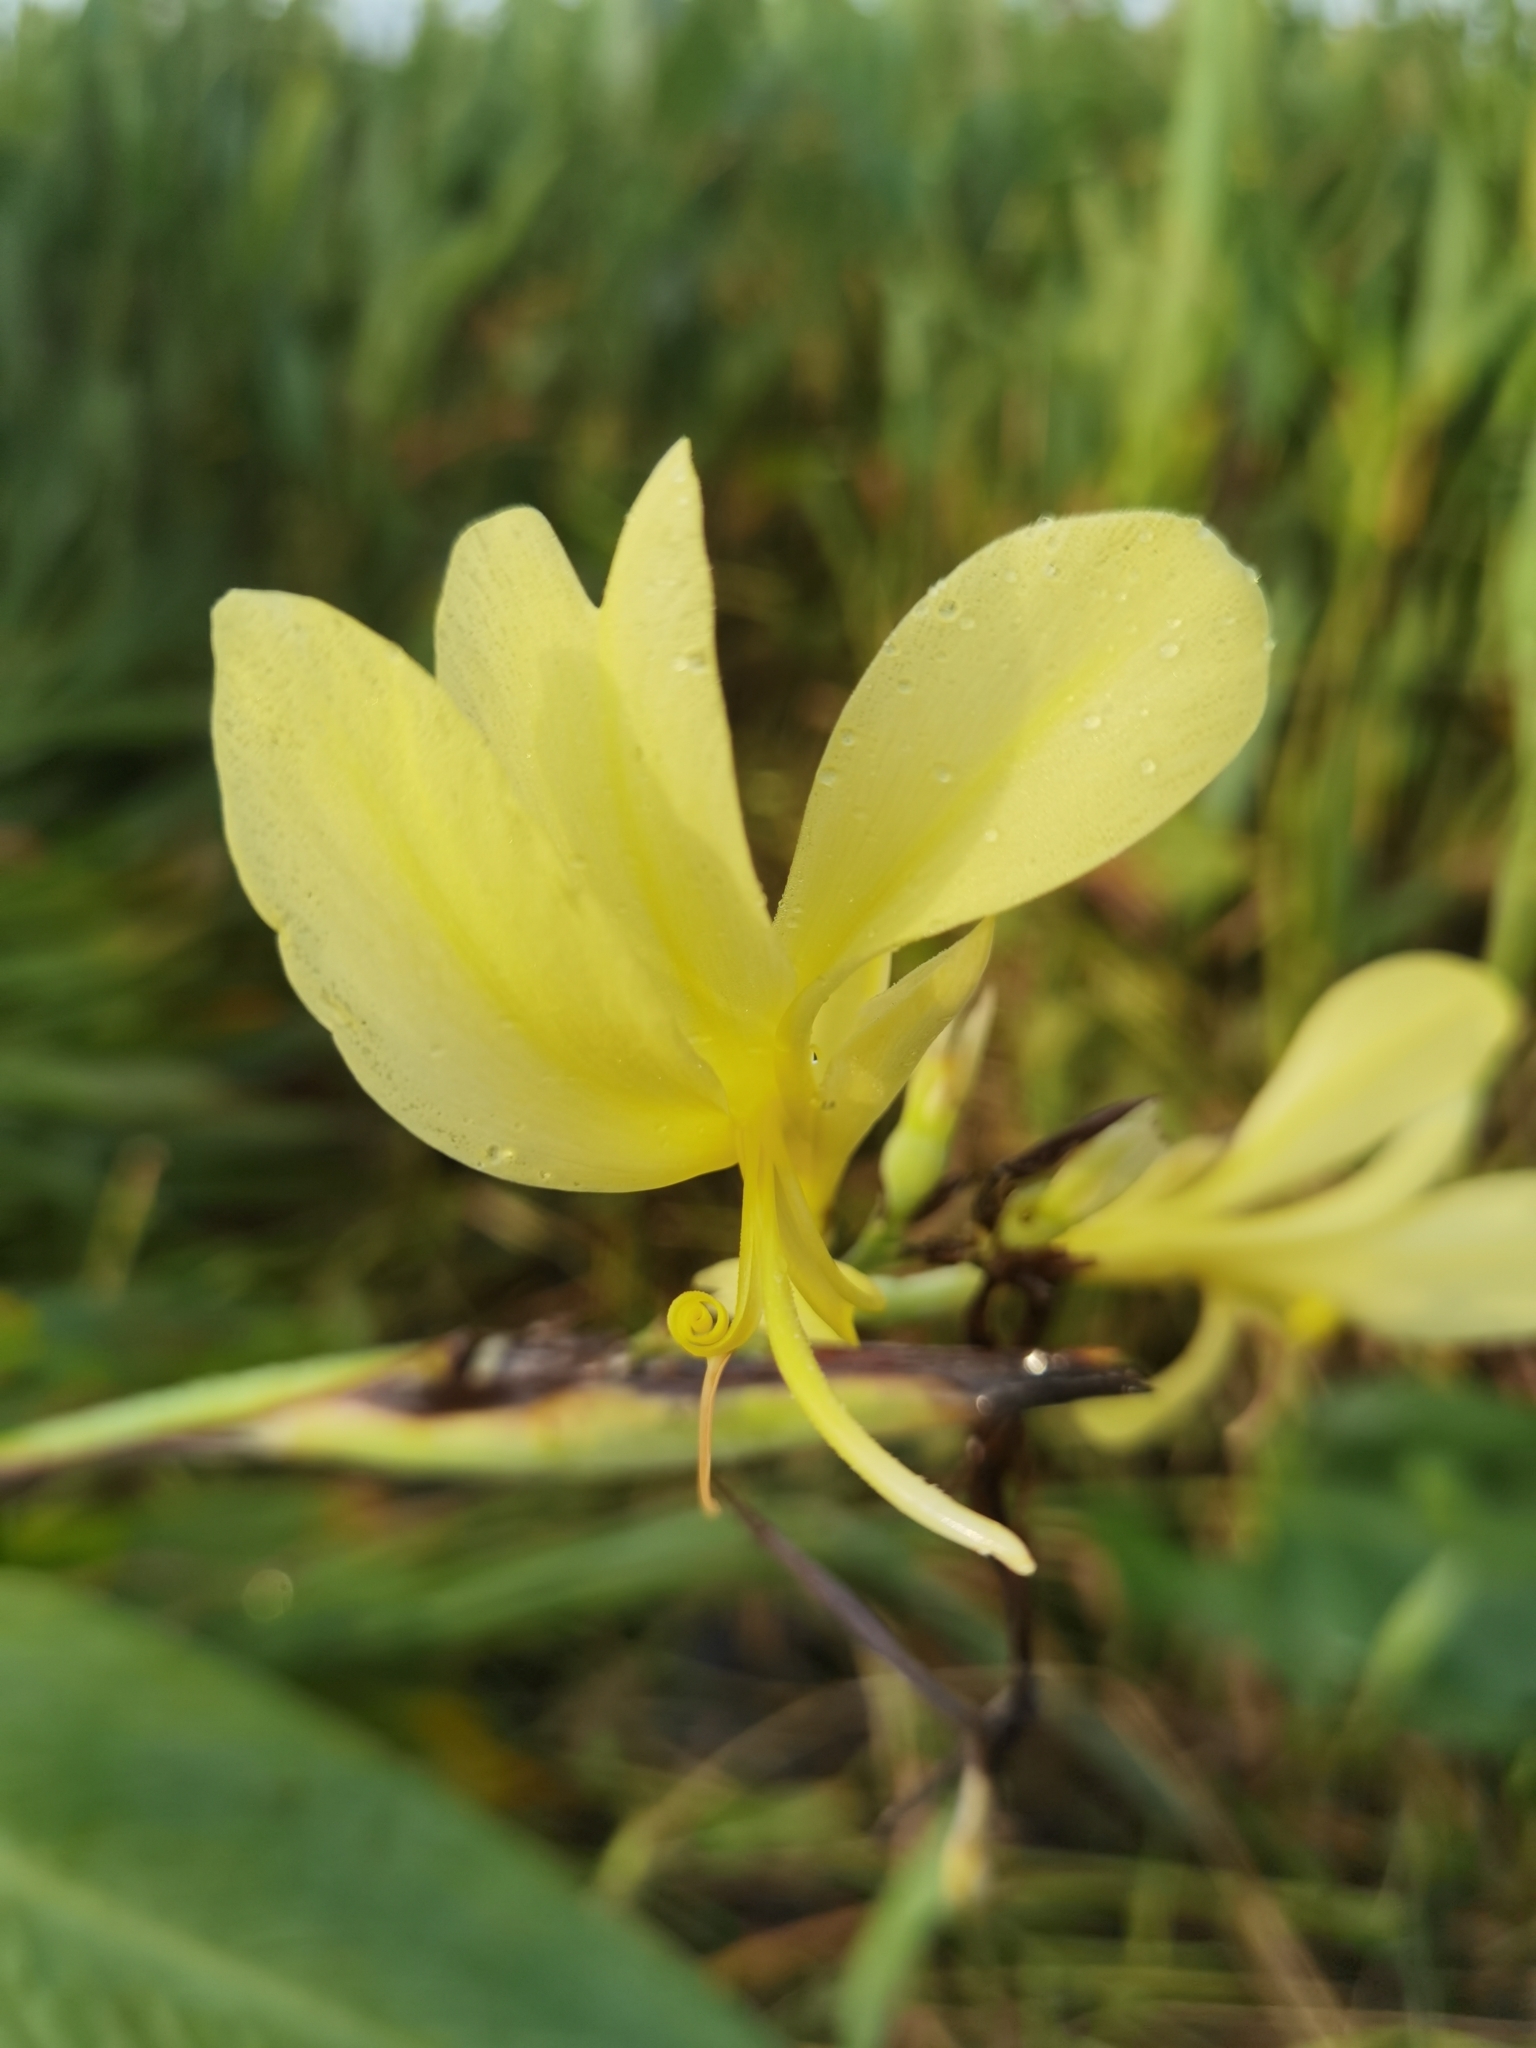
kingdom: Plantae
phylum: Tracheophyta
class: Liliopsida
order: Zingiberales
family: Cannaceae
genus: Canna
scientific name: Canna glauca
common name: Louisiana canna
